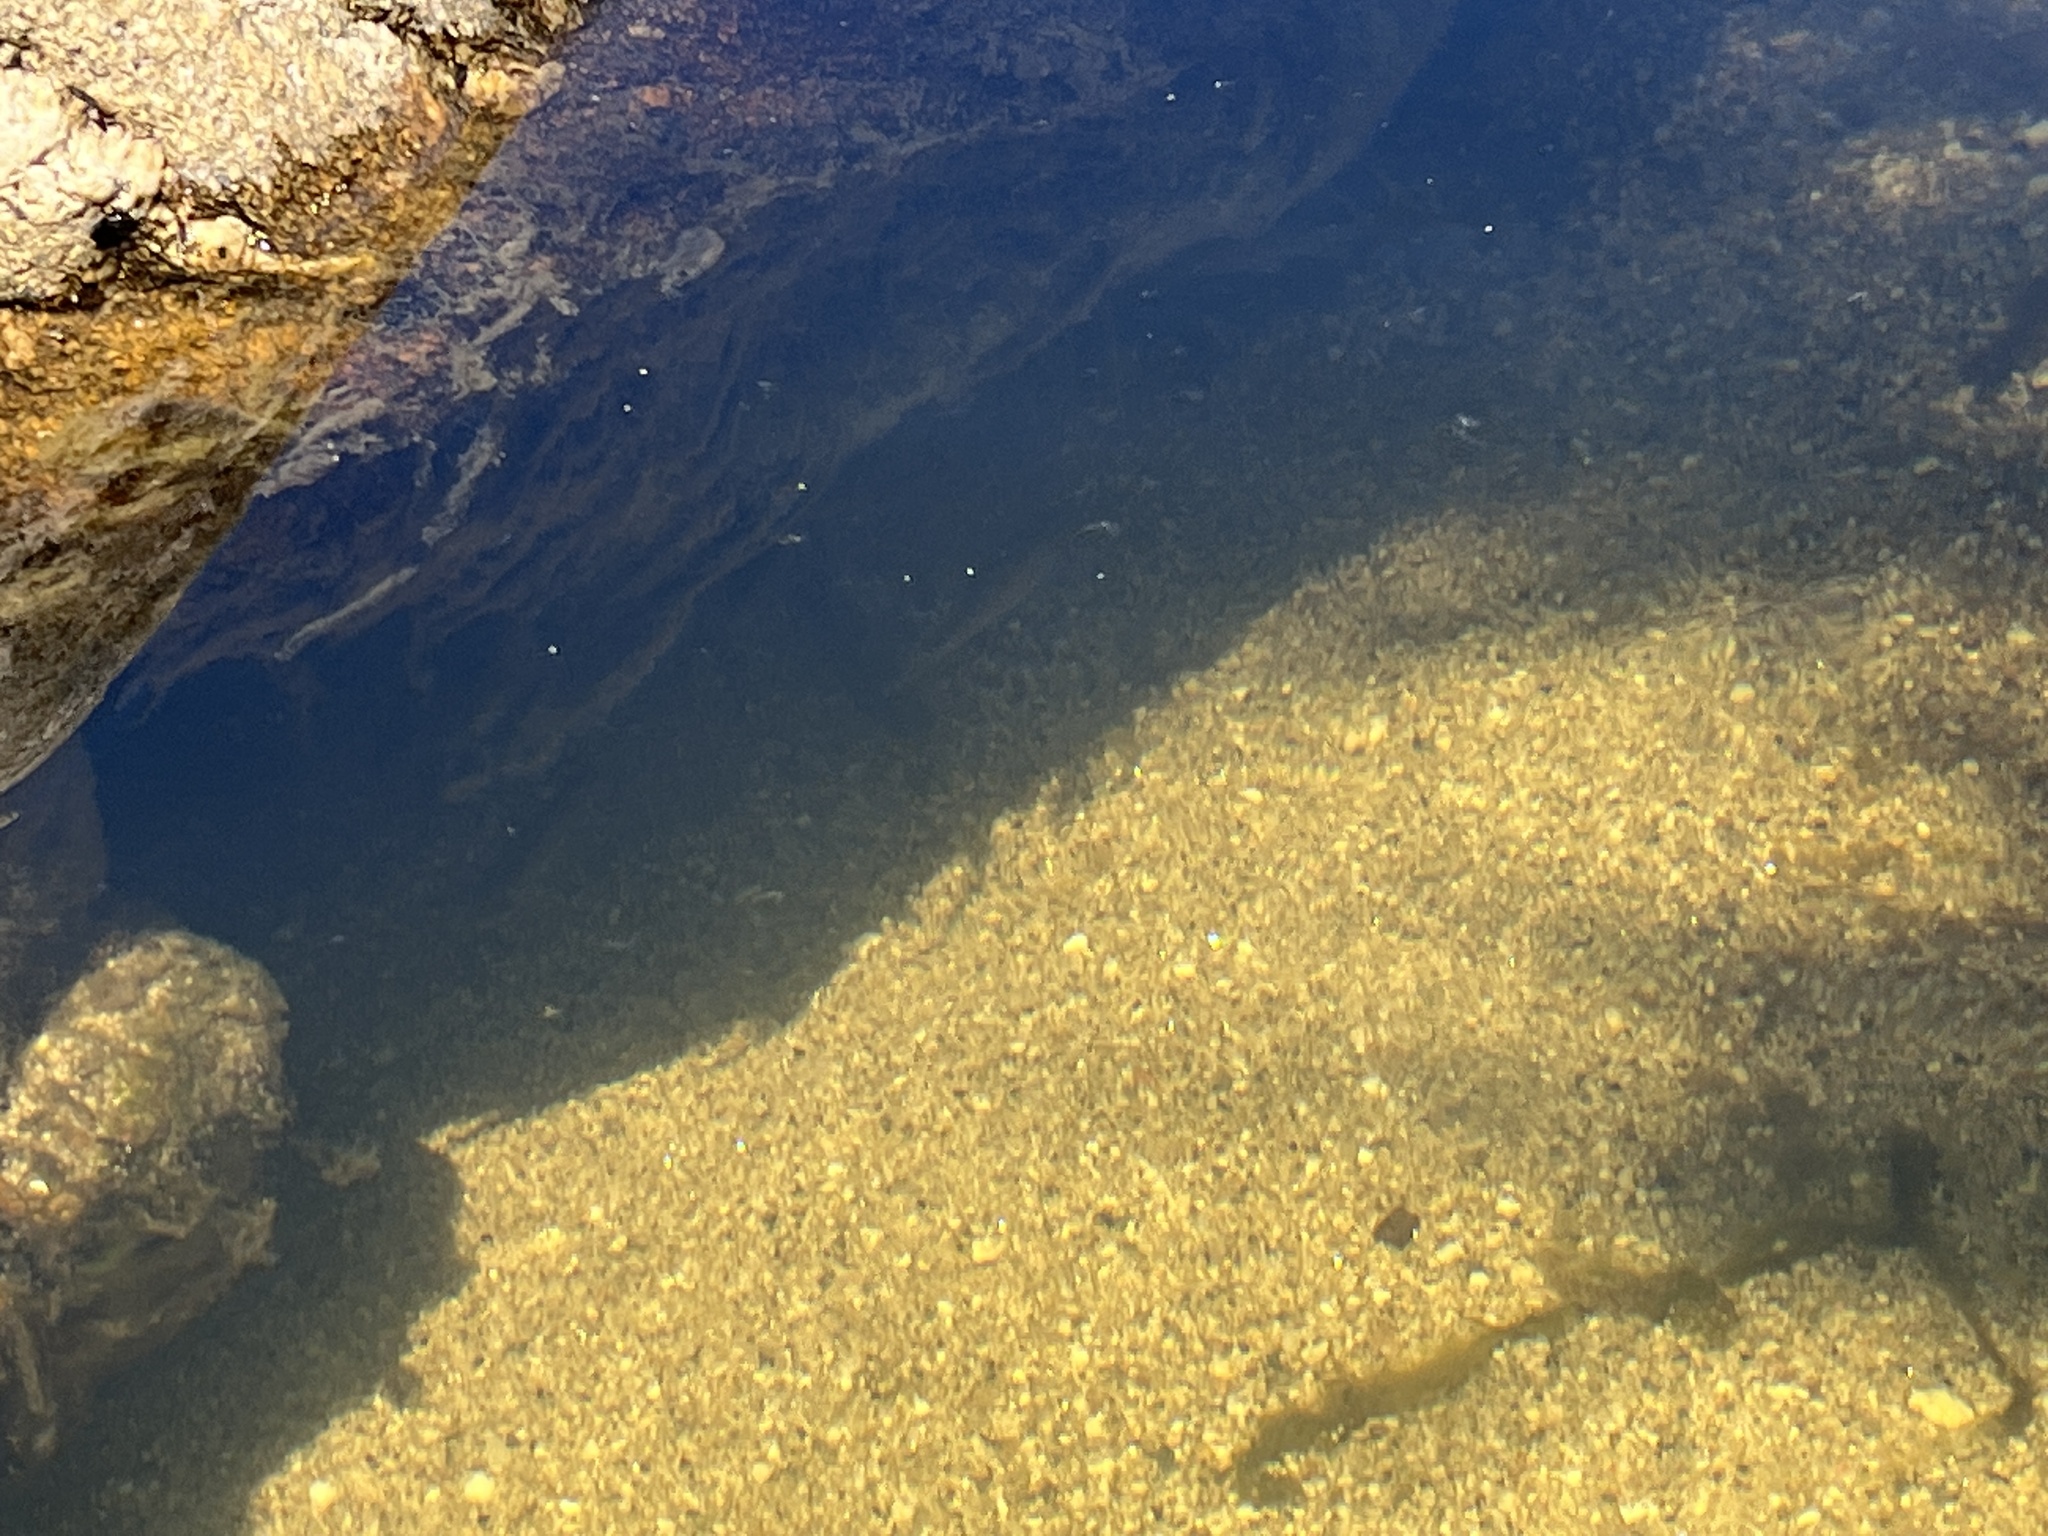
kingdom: Animalia
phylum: Chordata
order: Cypriniformes
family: Cyprinidae
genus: Gila
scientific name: Gila robusta
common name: Roundtail chub
